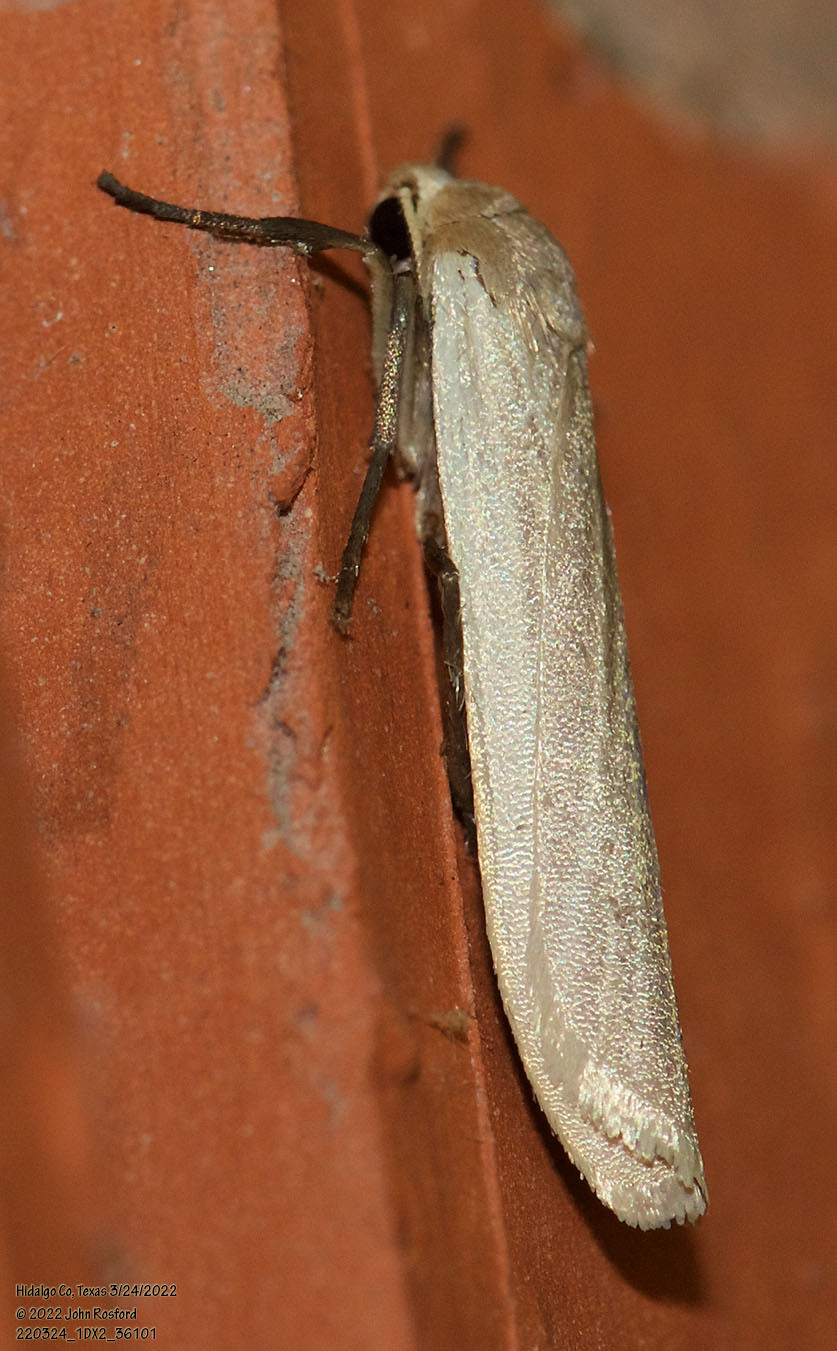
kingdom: Animalia
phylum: Arthropoda
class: Insecta
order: Lepidoptera
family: Erebidae
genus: Crambidia
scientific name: Crambidia myrlosea
